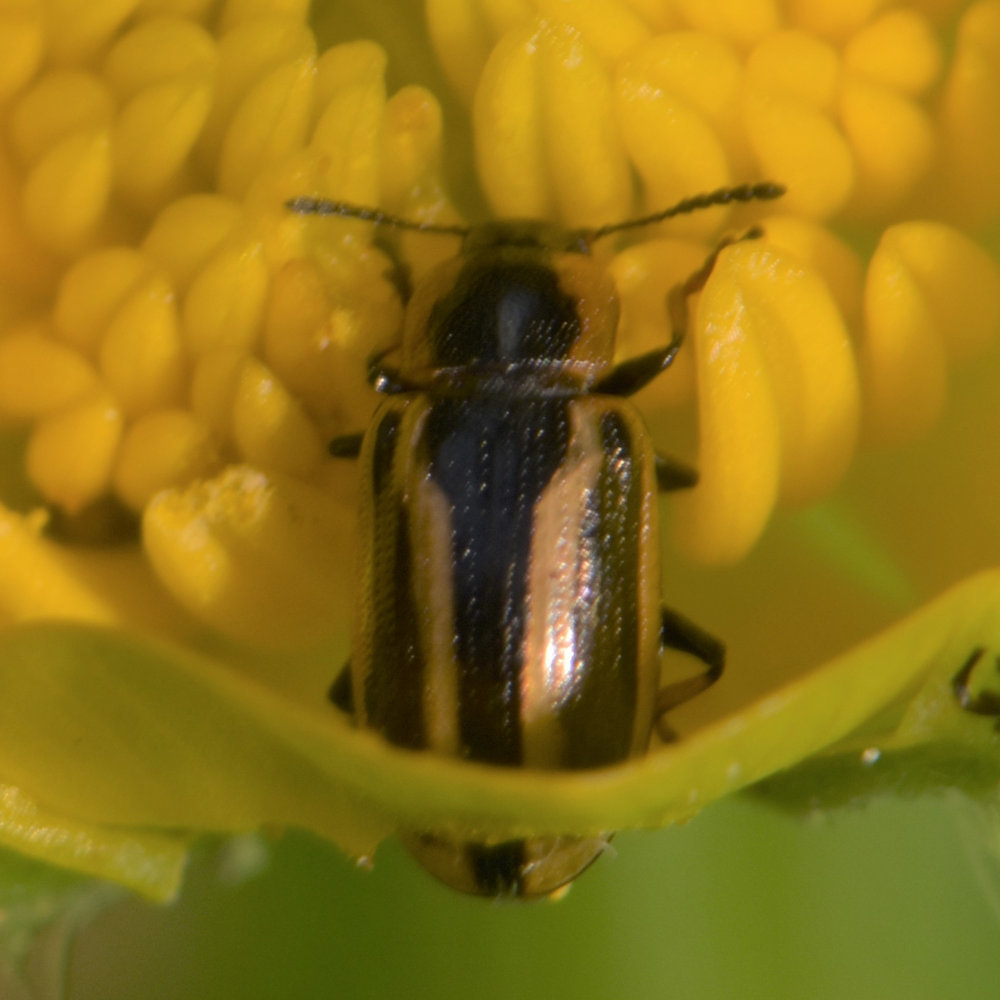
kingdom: Animalia
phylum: Arthropoda
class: Insecta
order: Coleoptera
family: Chrysomelidae
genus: Prasocuris
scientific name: Prasocuris vittata
